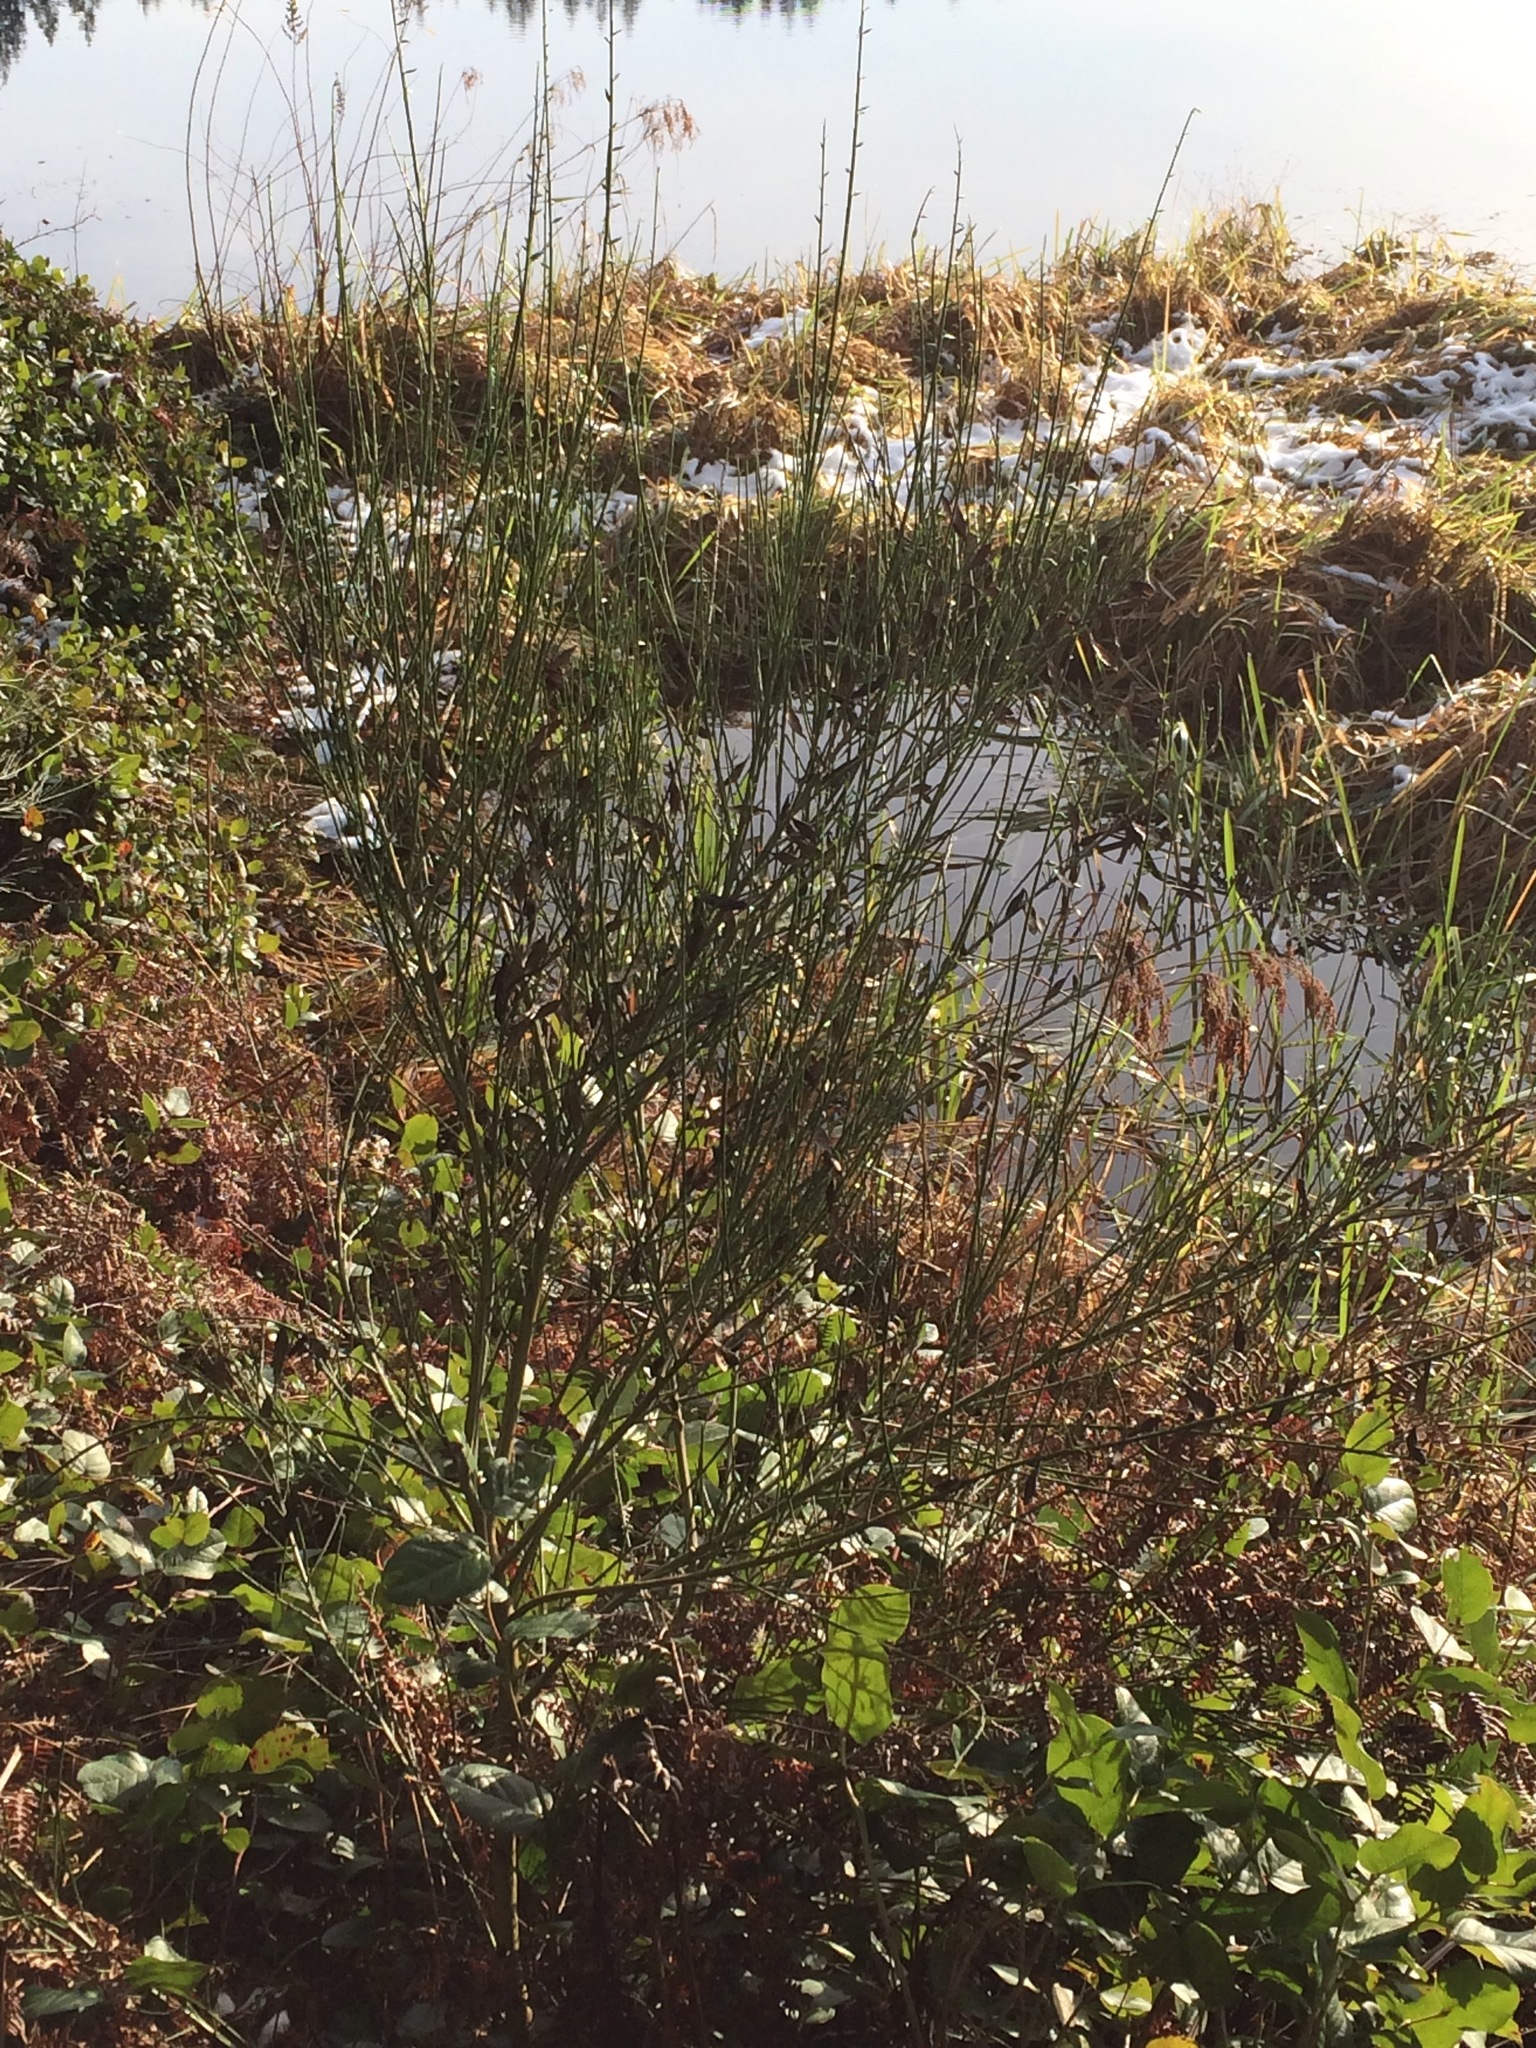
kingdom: Plantae
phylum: Tracheophyta
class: Magnoliopsida
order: Fabales
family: Fabaceae
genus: Cytisus
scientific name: Cytisus scoparius
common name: Scotch broom
